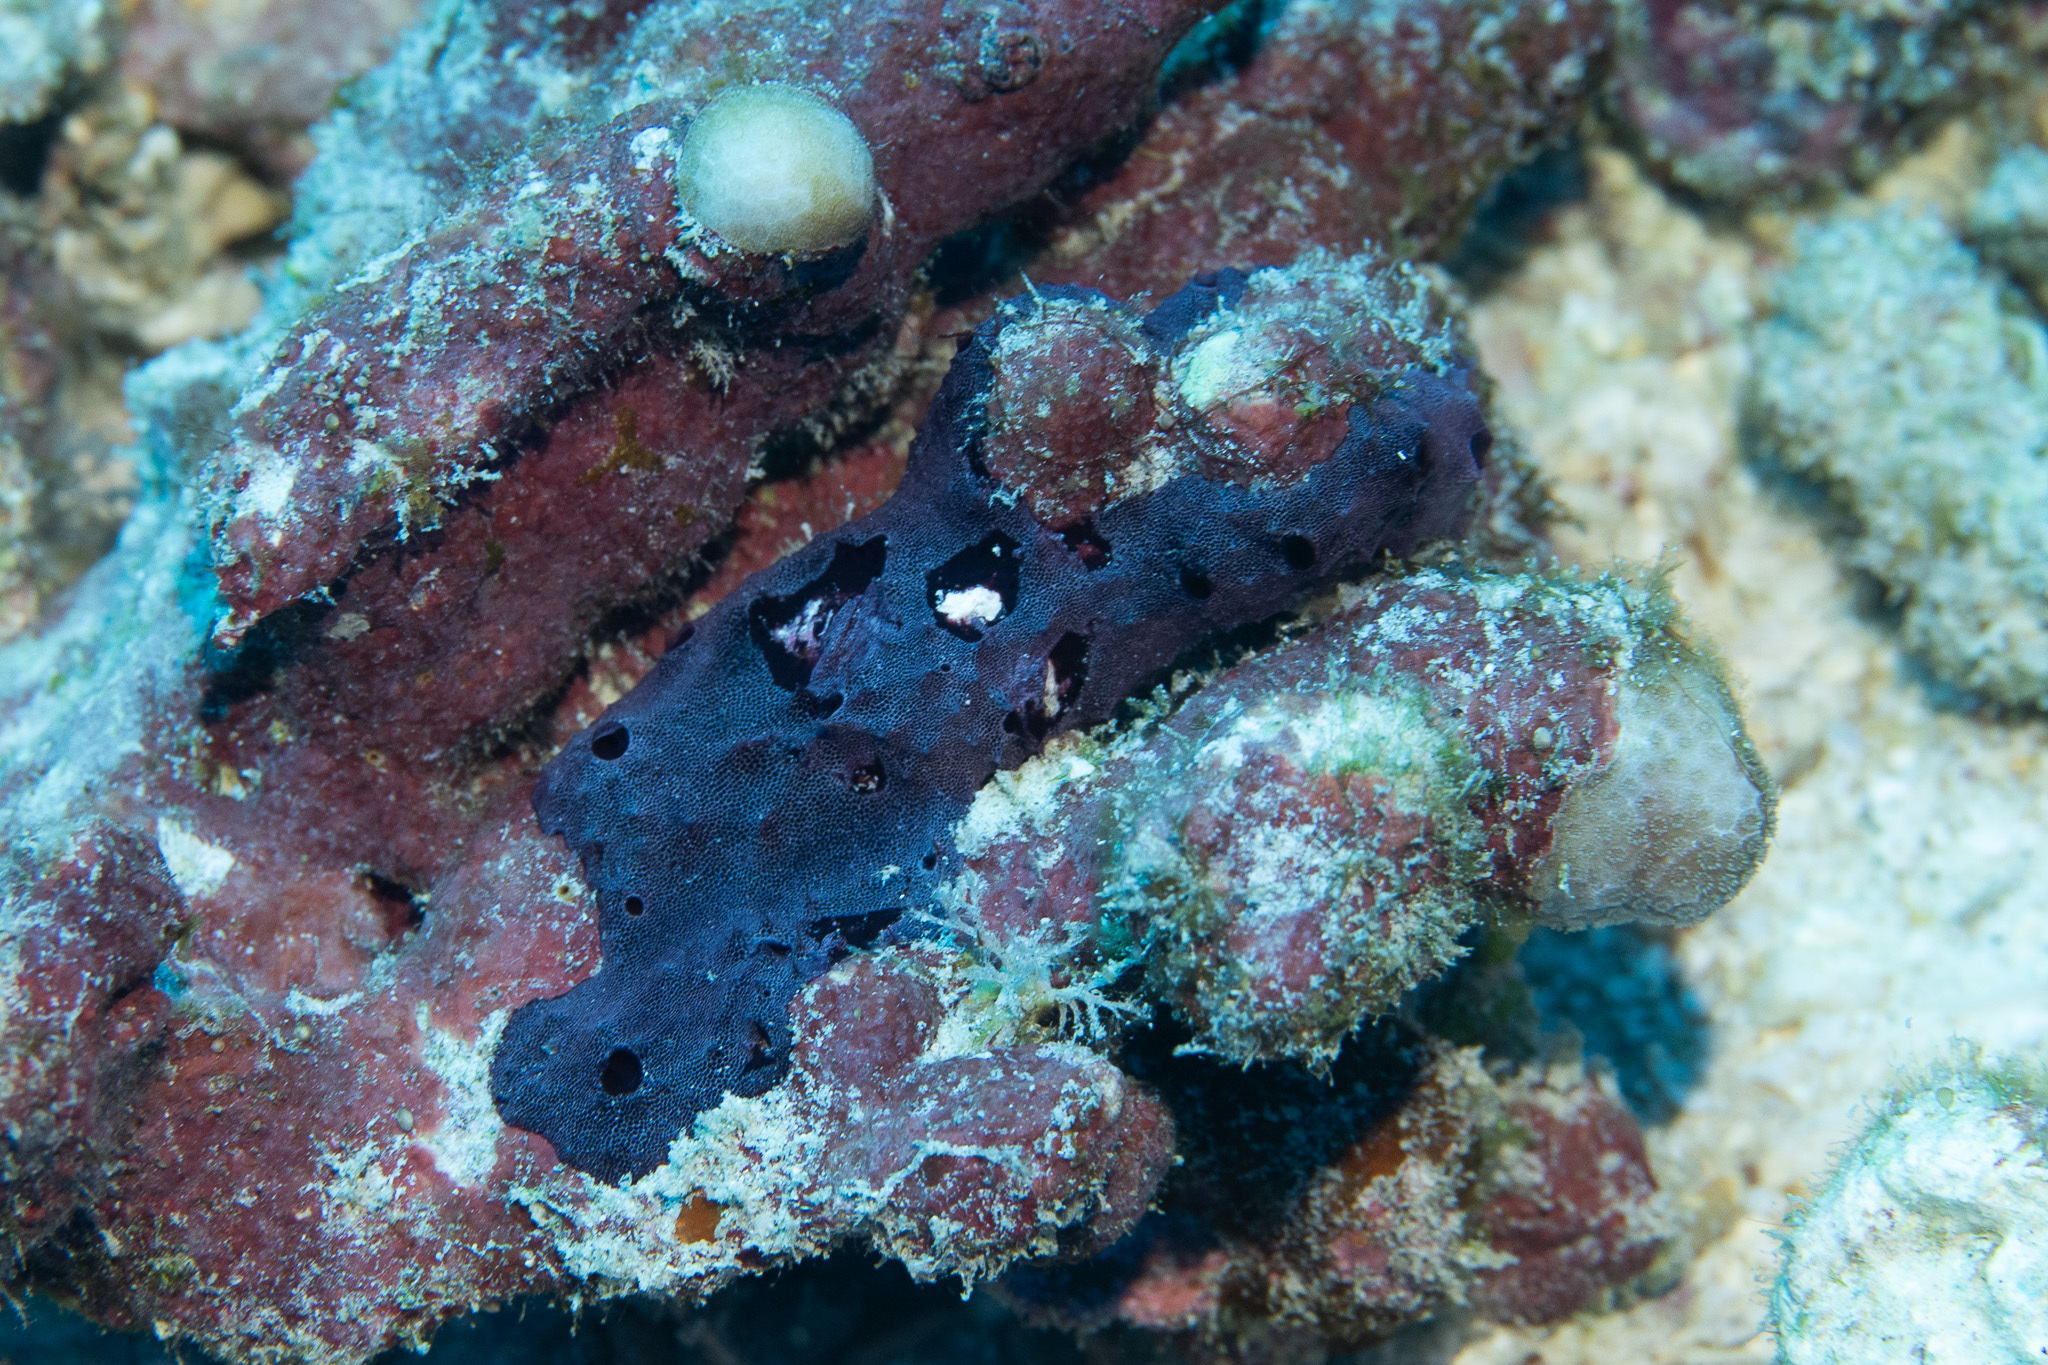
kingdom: Animalia
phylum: Porifera
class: Demospongiae
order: Dendroceratida
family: Darwinellidae
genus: Chelonaplysilla
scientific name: Chelonaplysilla violacea
